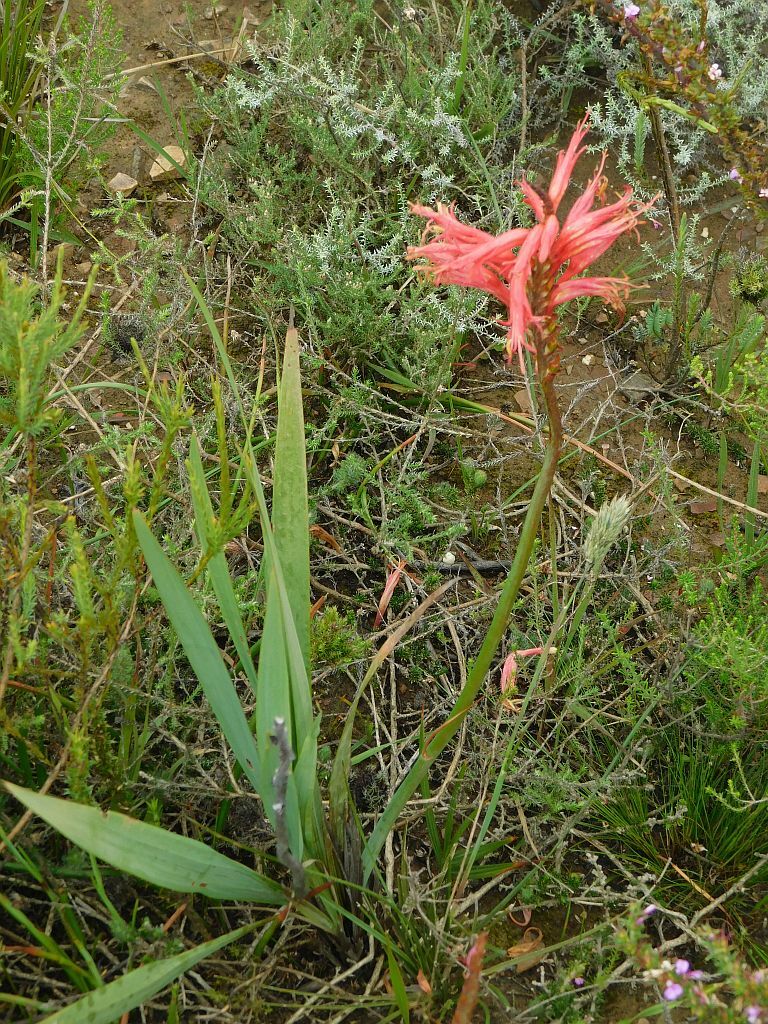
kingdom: Plantae
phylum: Tracheophyta
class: Liliopsida
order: Asparagales
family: Iridaceae
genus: Tritoniopsis
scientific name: Tritoniopsis antholyza
